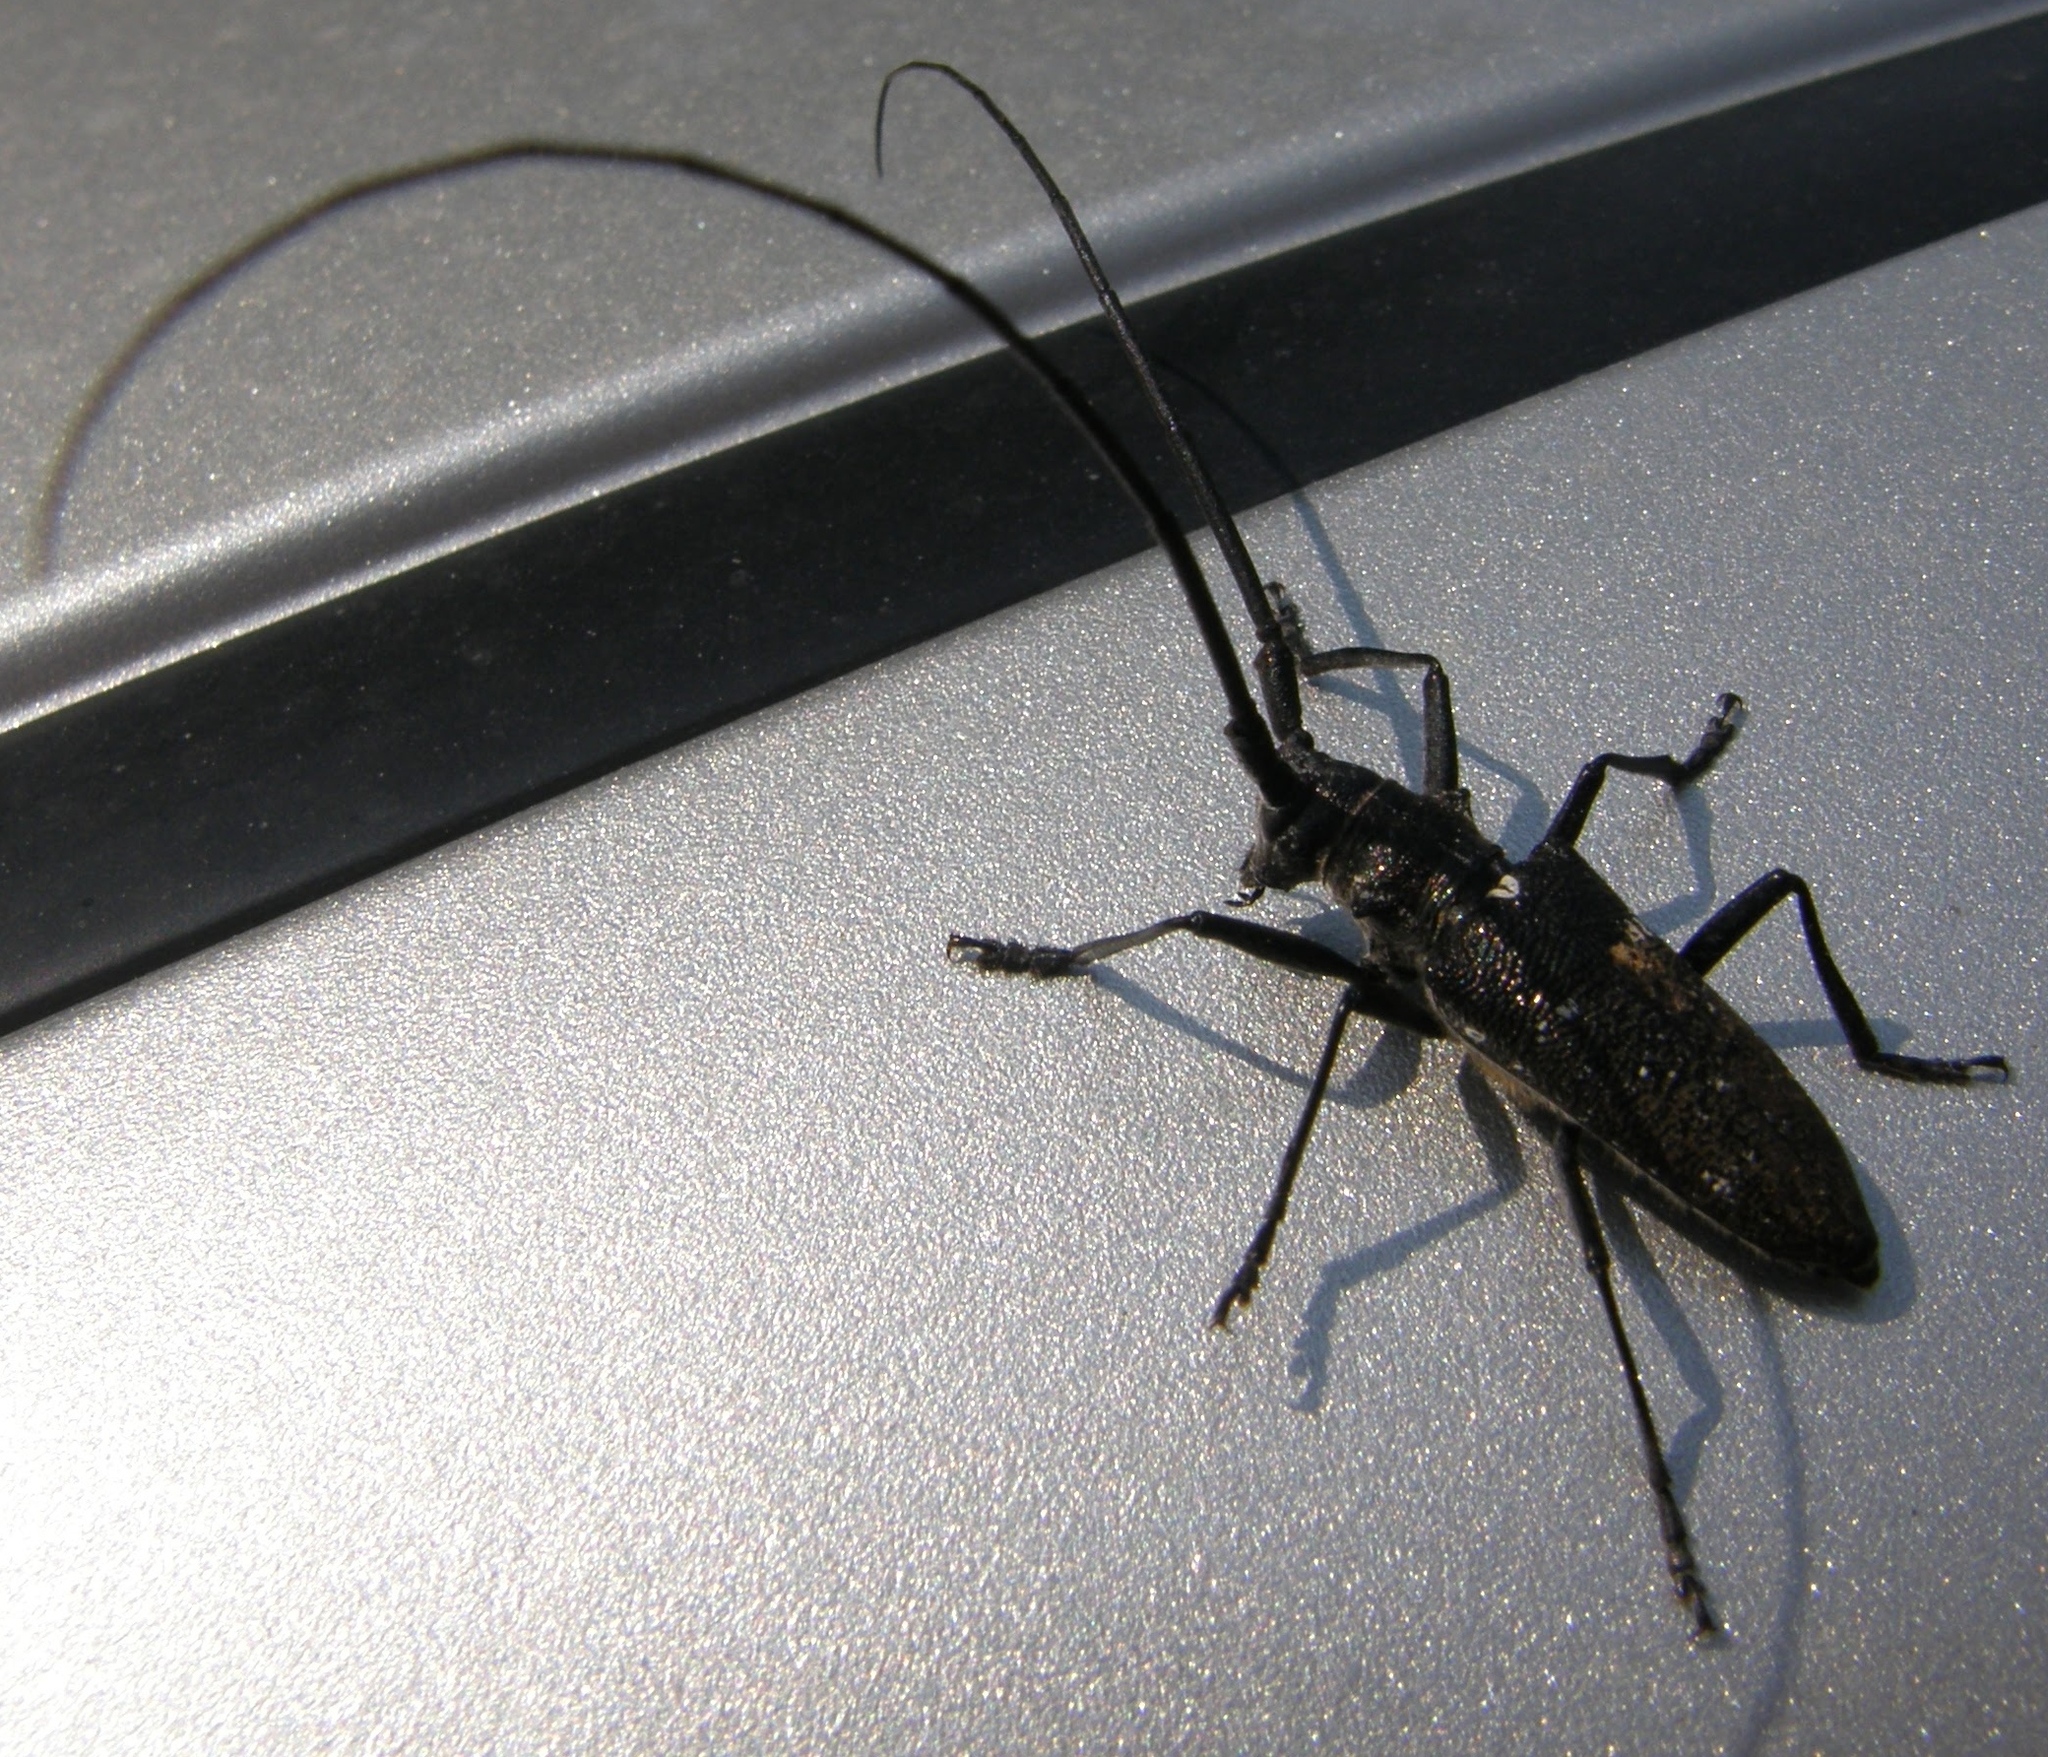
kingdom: Animalia
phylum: Arthropoda
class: Insecta
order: Coleoptera
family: Cerambycidae
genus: Monochamus
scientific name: Monochamus scutellatus
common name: White-spotted sawyer beetle
